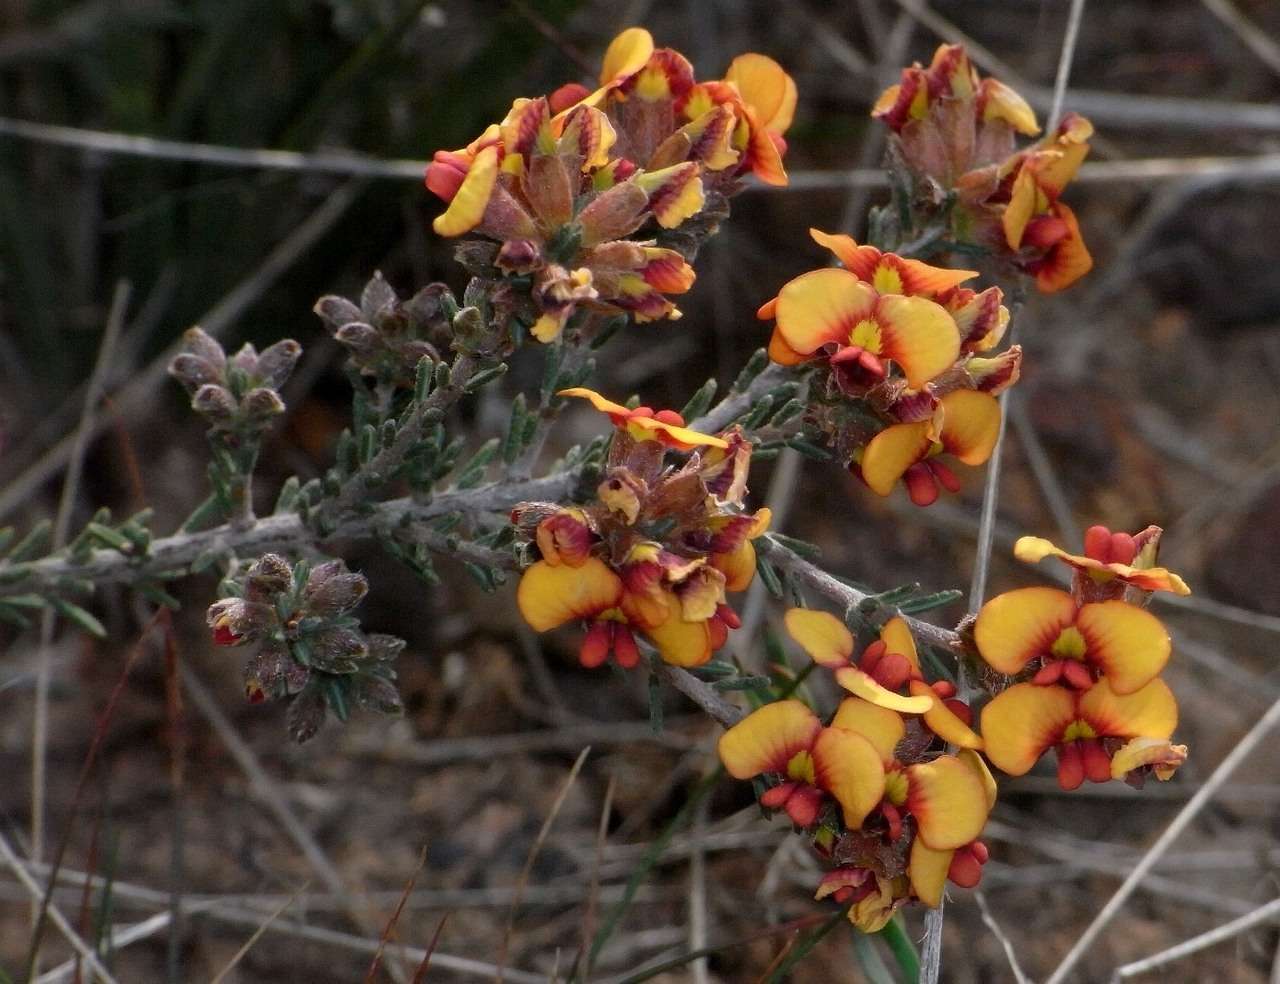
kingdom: Plantae
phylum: Tracheophyta
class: Magnoliopsida
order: Fabales
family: Fabaceae
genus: Dillwynia
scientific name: Dillwynia sericea
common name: Showy parrot-pea
